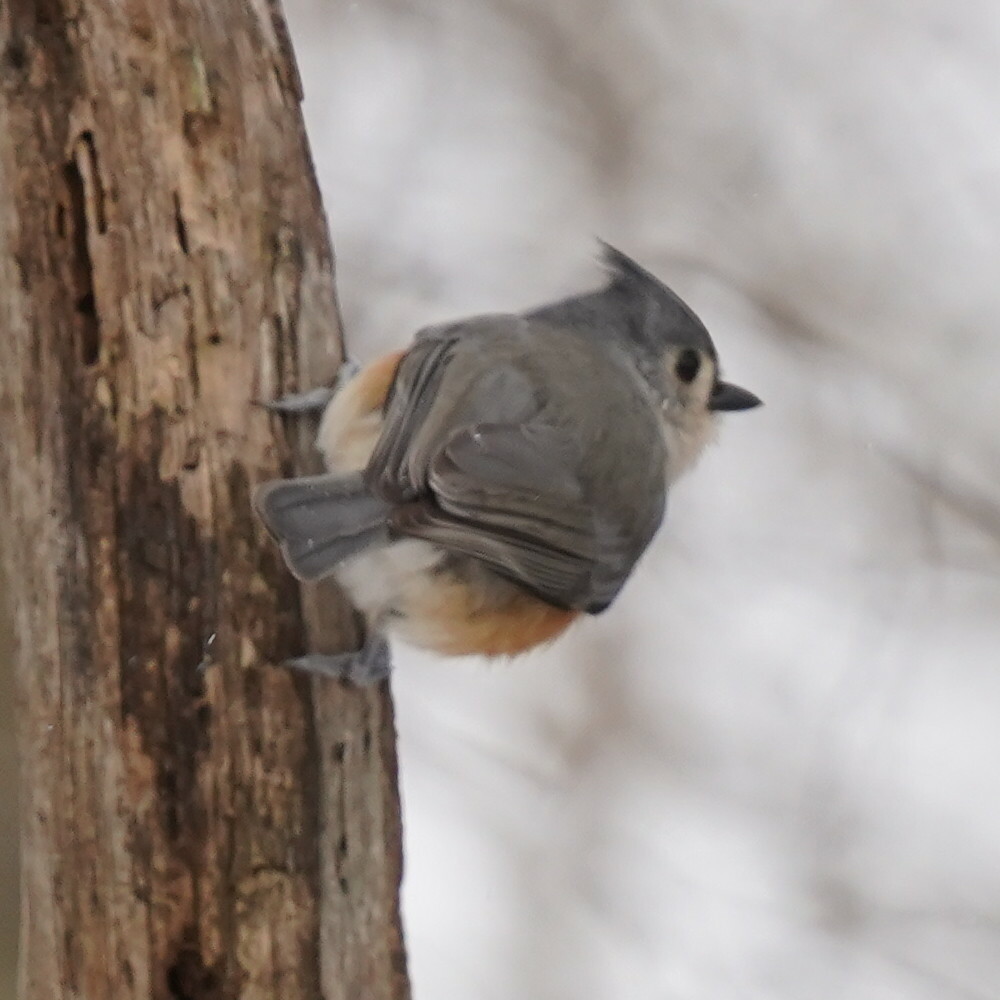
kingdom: Animalia
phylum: Chordata
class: Aves
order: Passeriformes
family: Paridae
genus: Baeolophus
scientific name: Baeolophus bicolor
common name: Tufted titmouse
